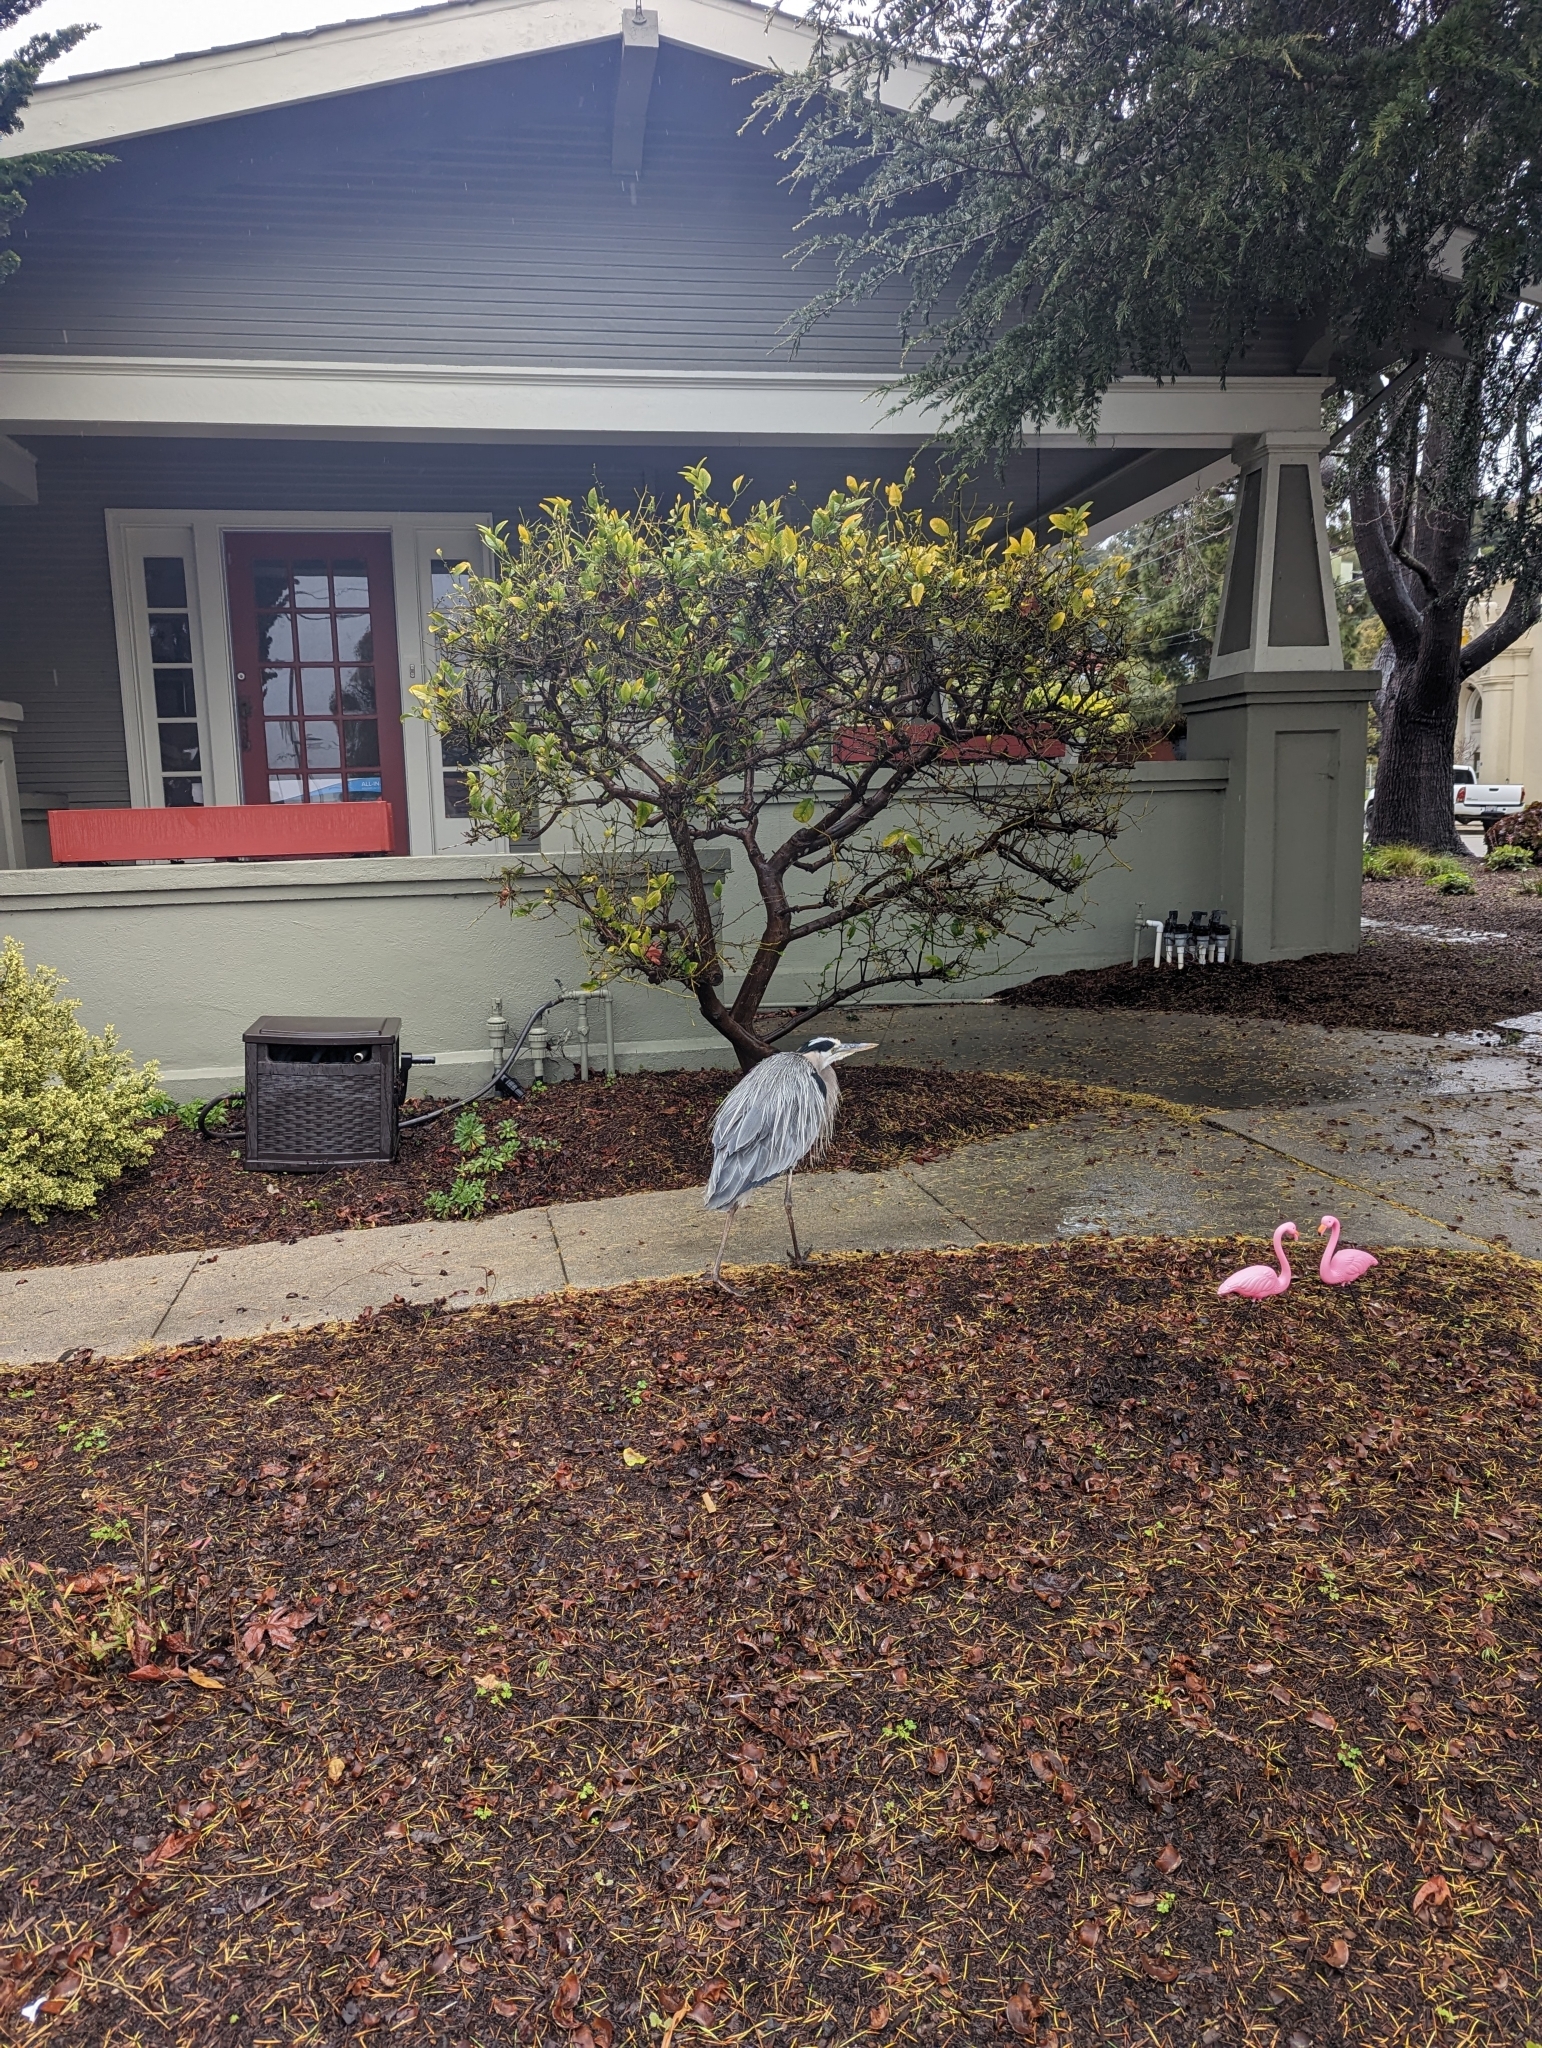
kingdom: Animalia
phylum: Chordata
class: Aves
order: Pelecaniformes
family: Ardeidae
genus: Ardea
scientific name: Ardea herodias
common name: Great blue heron
